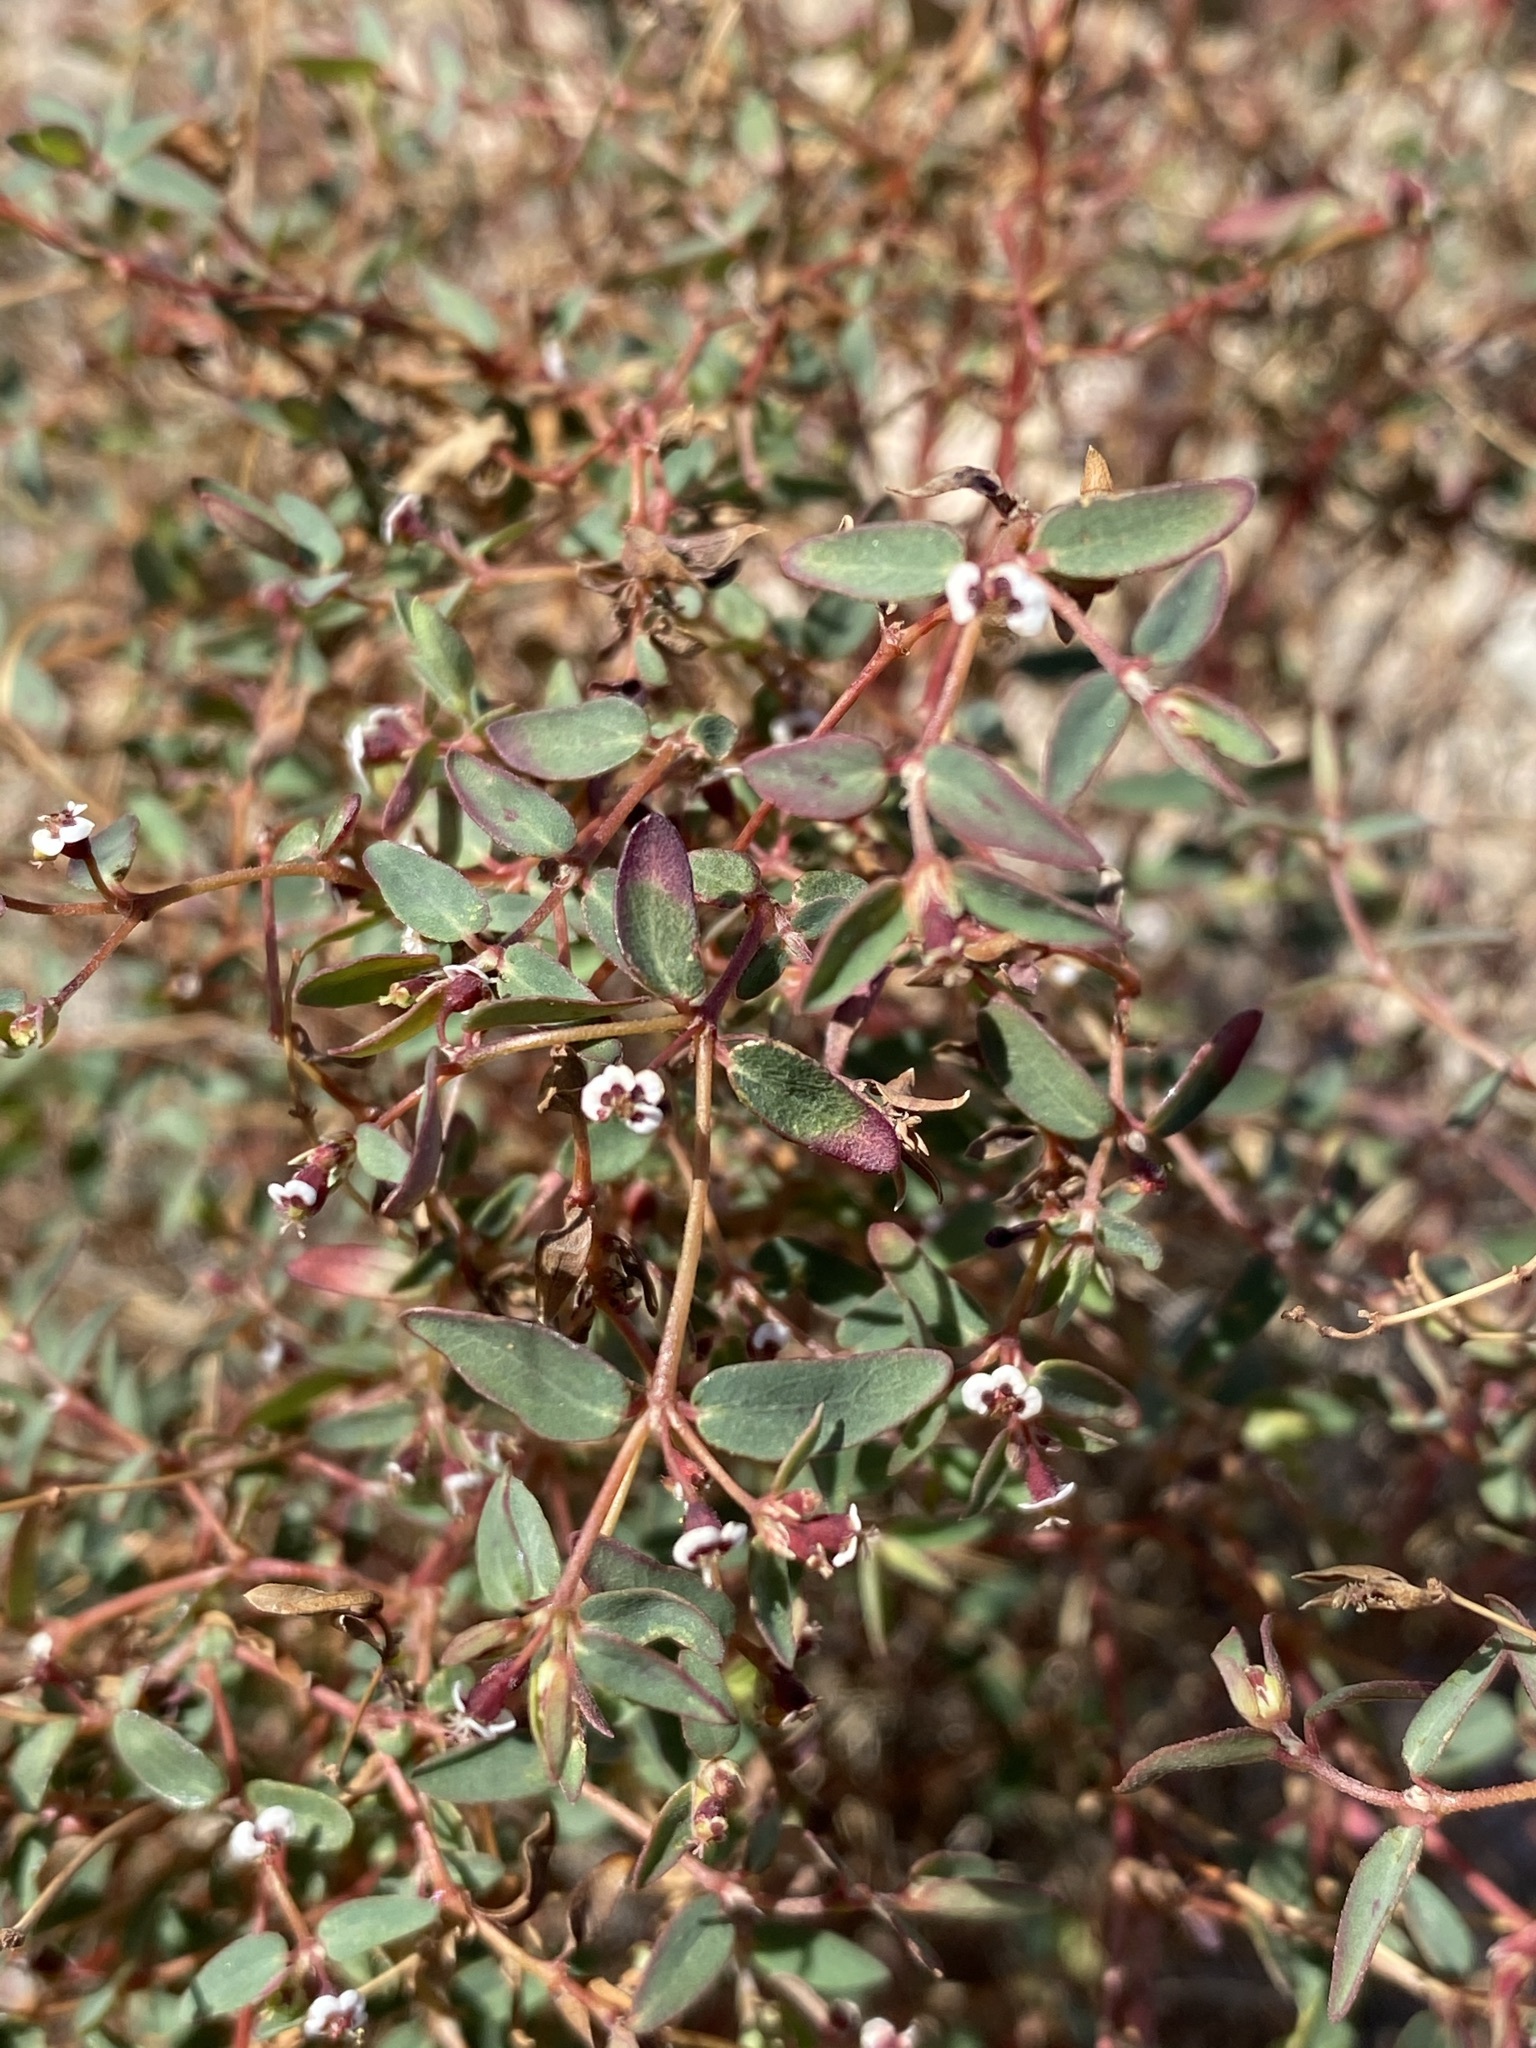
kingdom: Plantae
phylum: Tracheophyta
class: Magnoliopsida
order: Malpighiales
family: Euphorbiaceae
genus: Euphorbia
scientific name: Euphorbia capitellata
